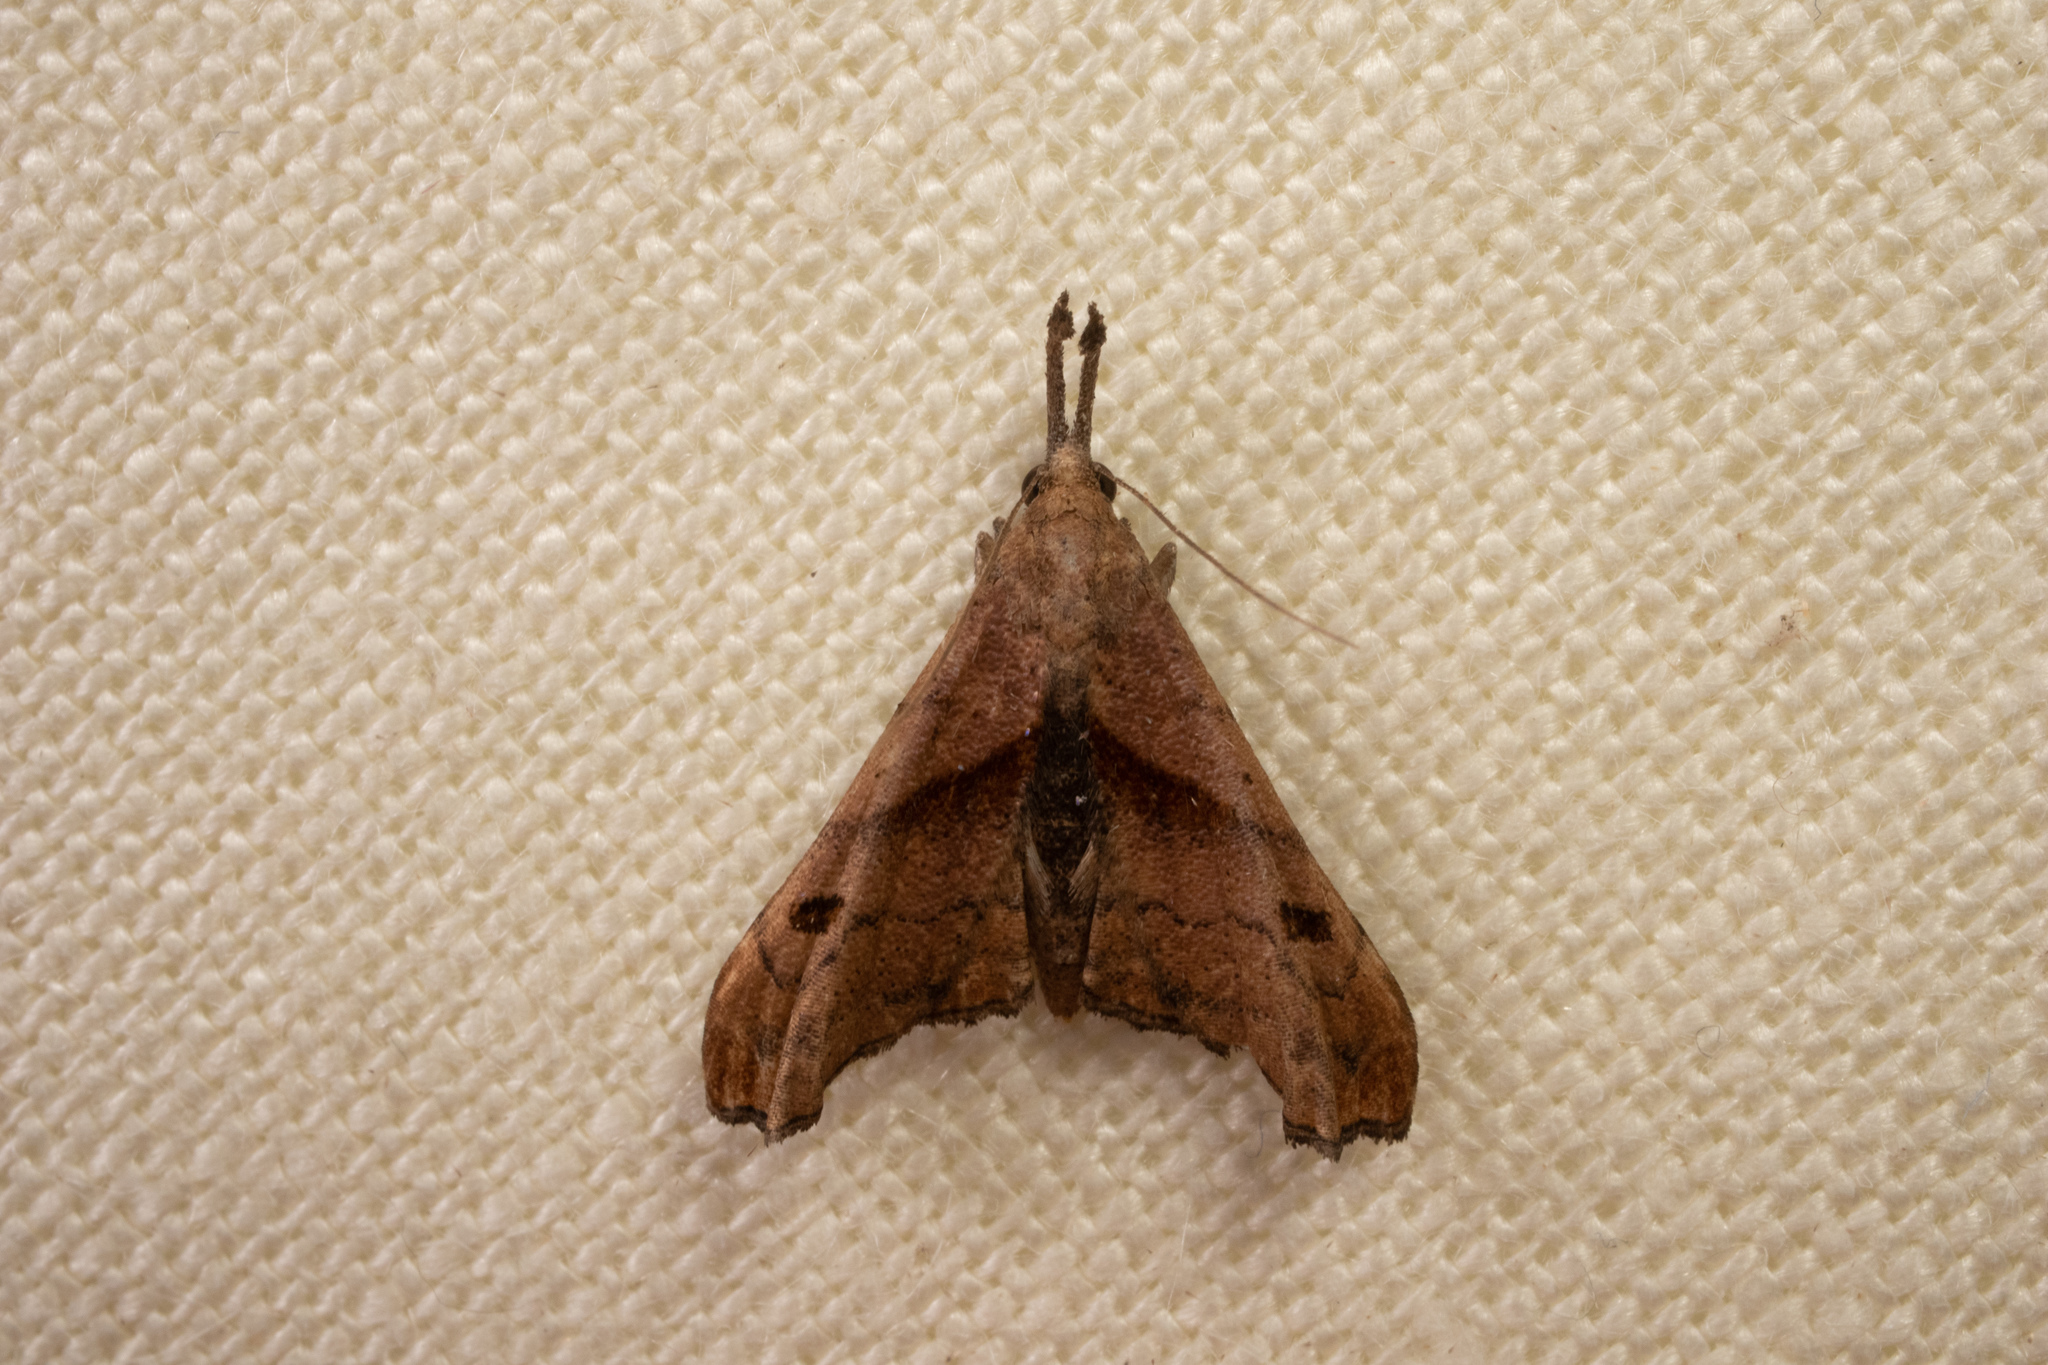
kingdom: Animalia
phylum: Arthropoda
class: Insecta
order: Lepidoptera
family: Erebidae
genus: Palthis
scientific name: Palthis angulalis
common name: Dark-spotted palthis moth
